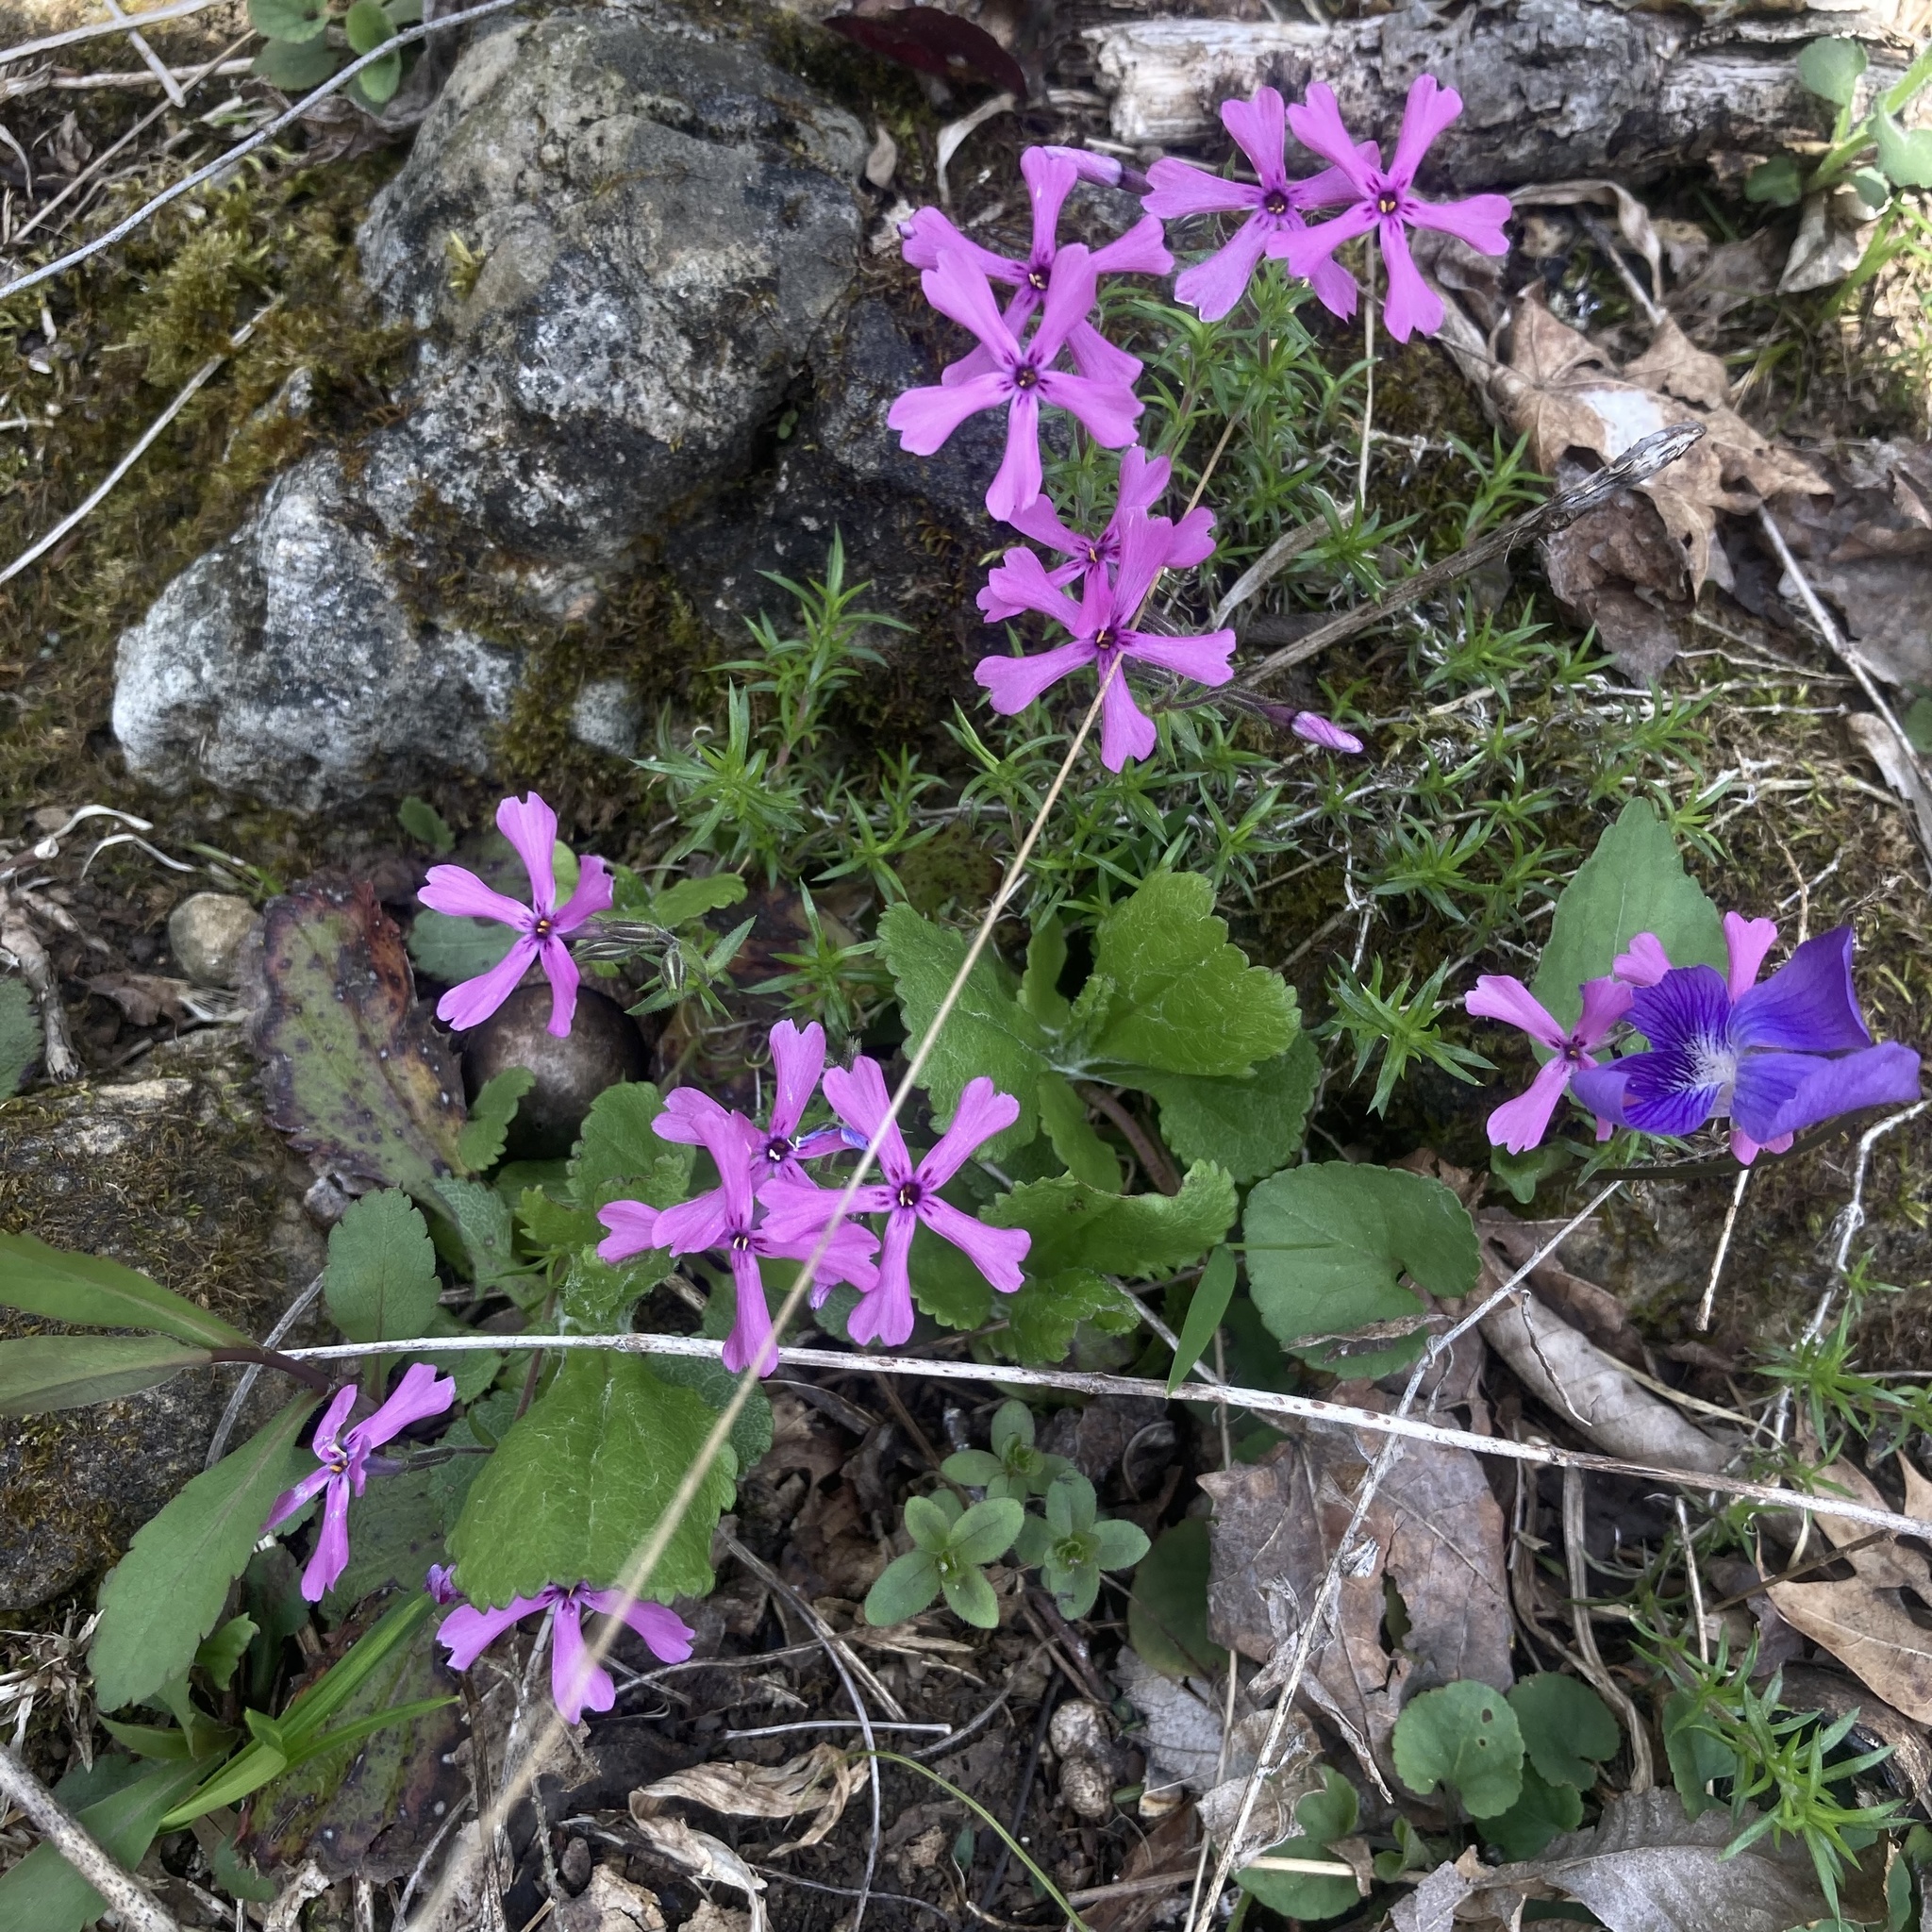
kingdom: Plantae
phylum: Tracheophyta
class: Magnoliopsida
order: Ericales
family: Polemoniaceae
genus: Phlox
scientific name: Phlox subulata
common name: Moss phlox
